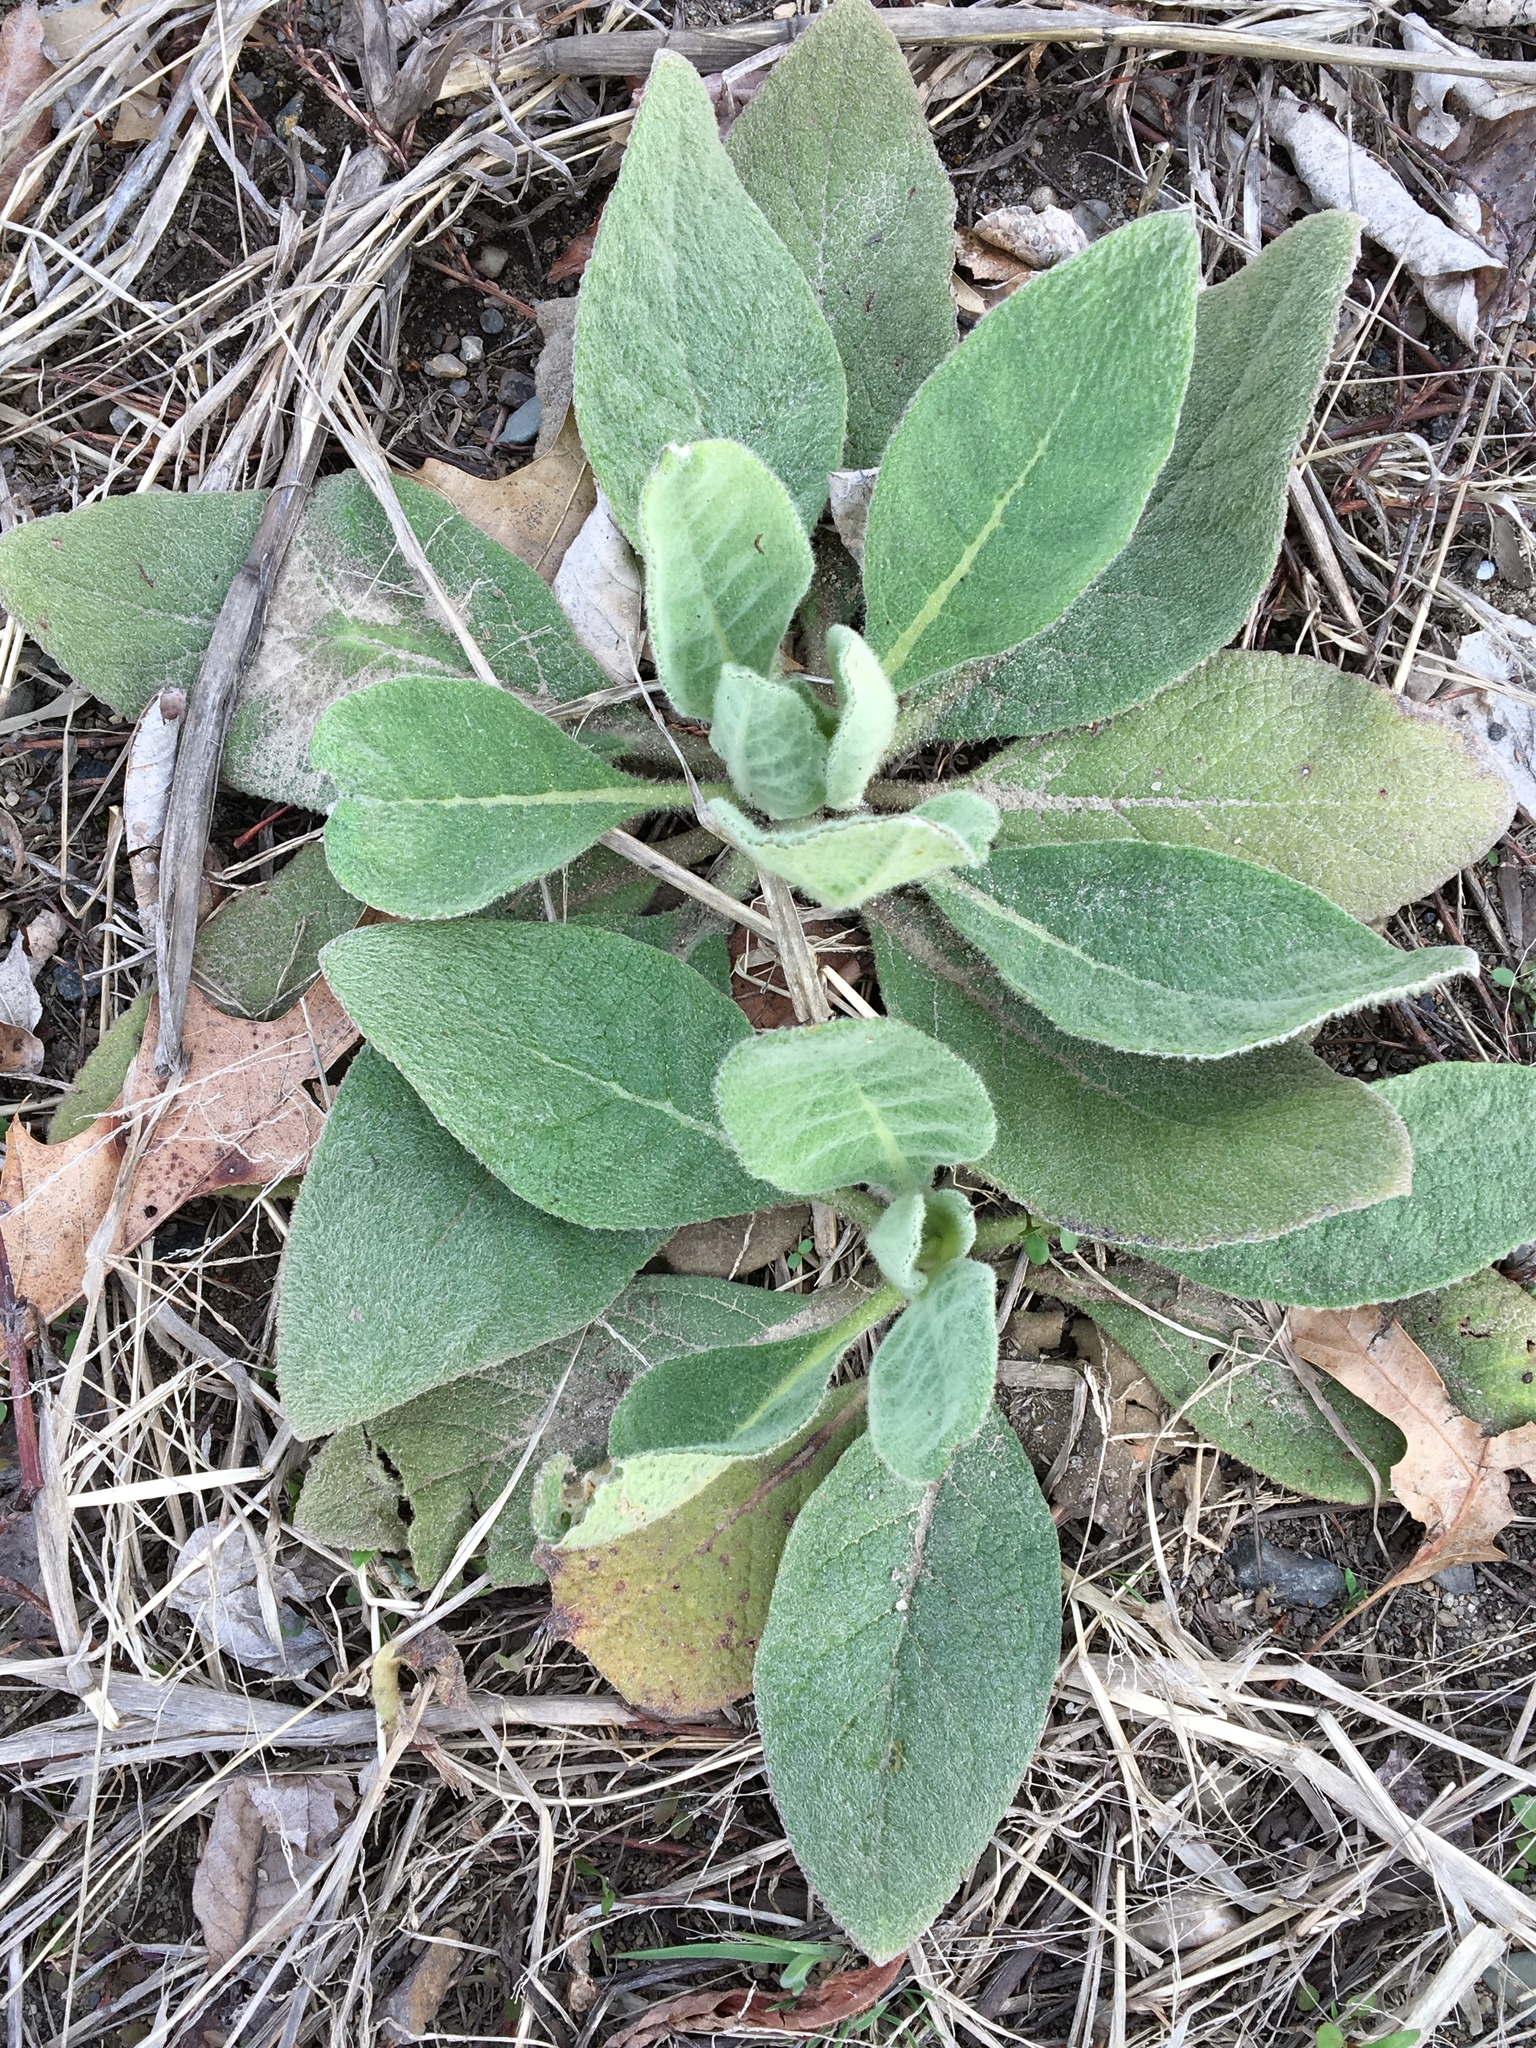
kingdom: Plantae
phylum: Tracheophyta
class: Magnoliopsida
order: Lamiales
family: Scrophulariaceae
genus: Verbascum
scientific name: Verbascum thapsus
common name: Common mullein
